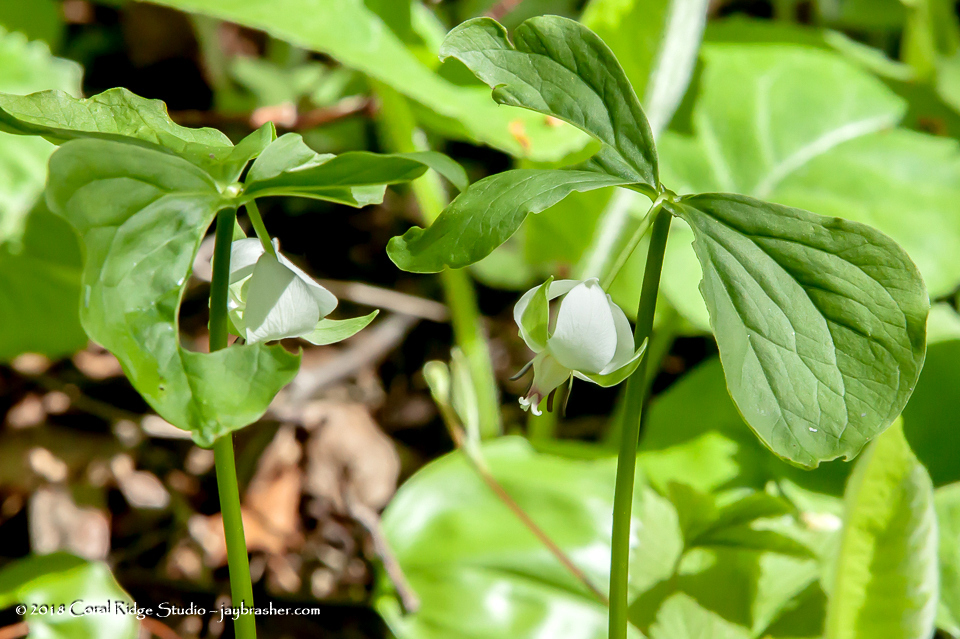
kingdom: Plantae
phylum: Tracheophyta
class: Liliopsida
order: Liliales
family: Melanthiaceae
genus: Trillium
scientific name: Trillium cernuum
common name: Nodding trillium
